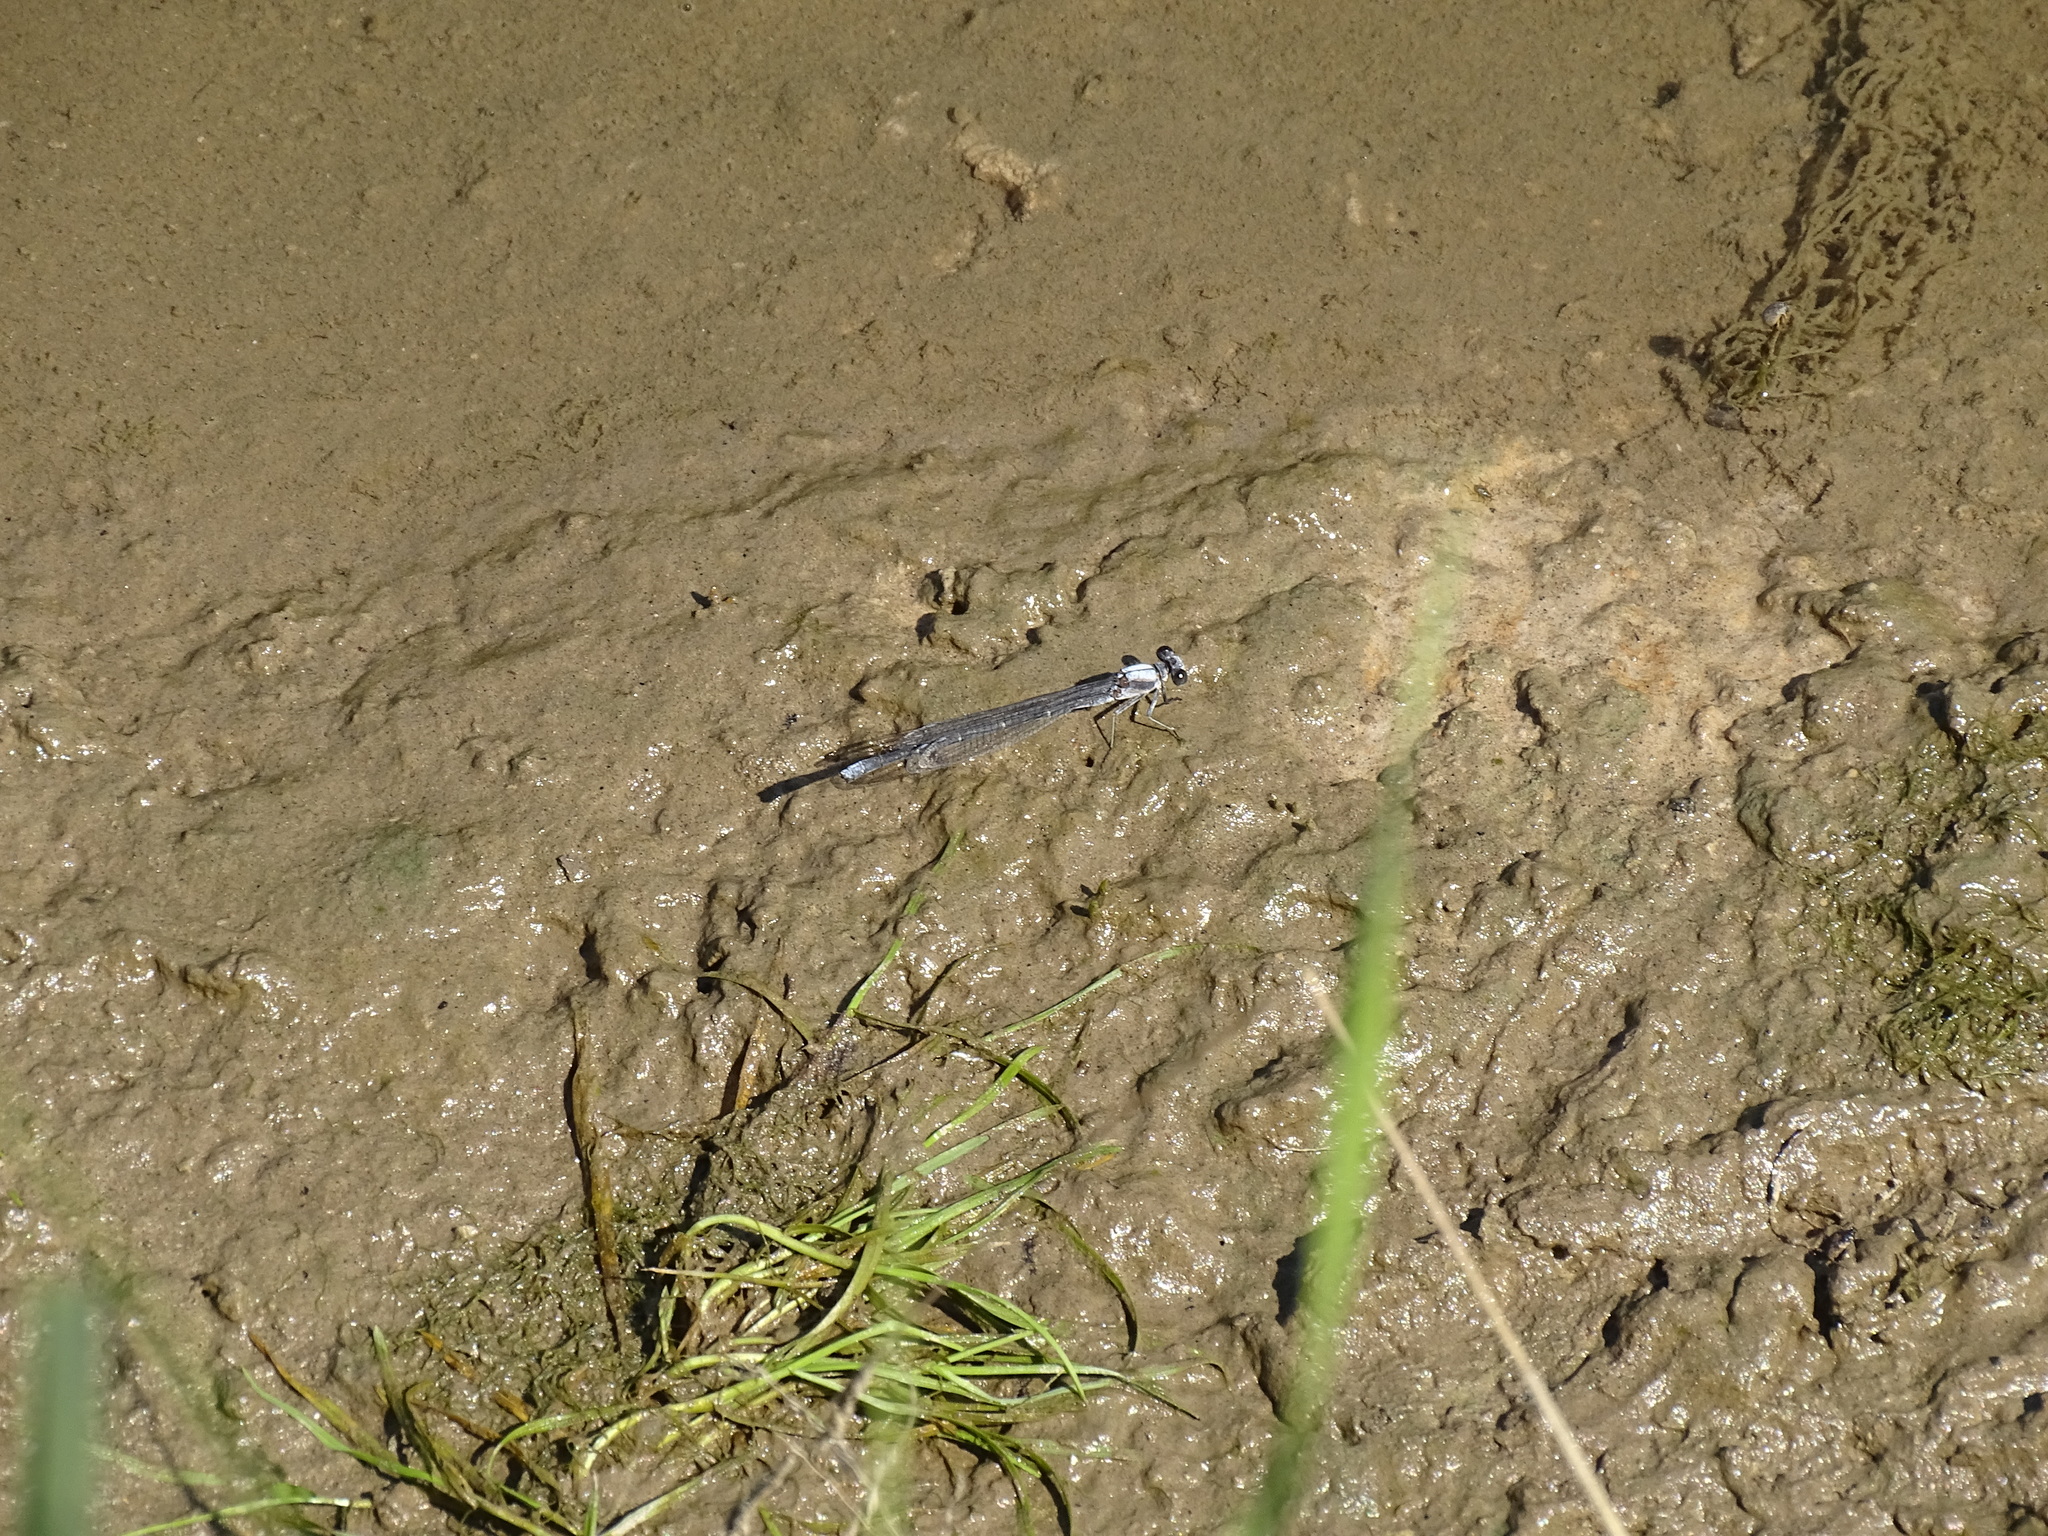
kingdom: Animalia
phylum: Arthropoda
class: Insecta
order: Odonata
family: Coenagrionidae
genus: Argia
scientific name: Argia moesta
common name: Powdered dancer
